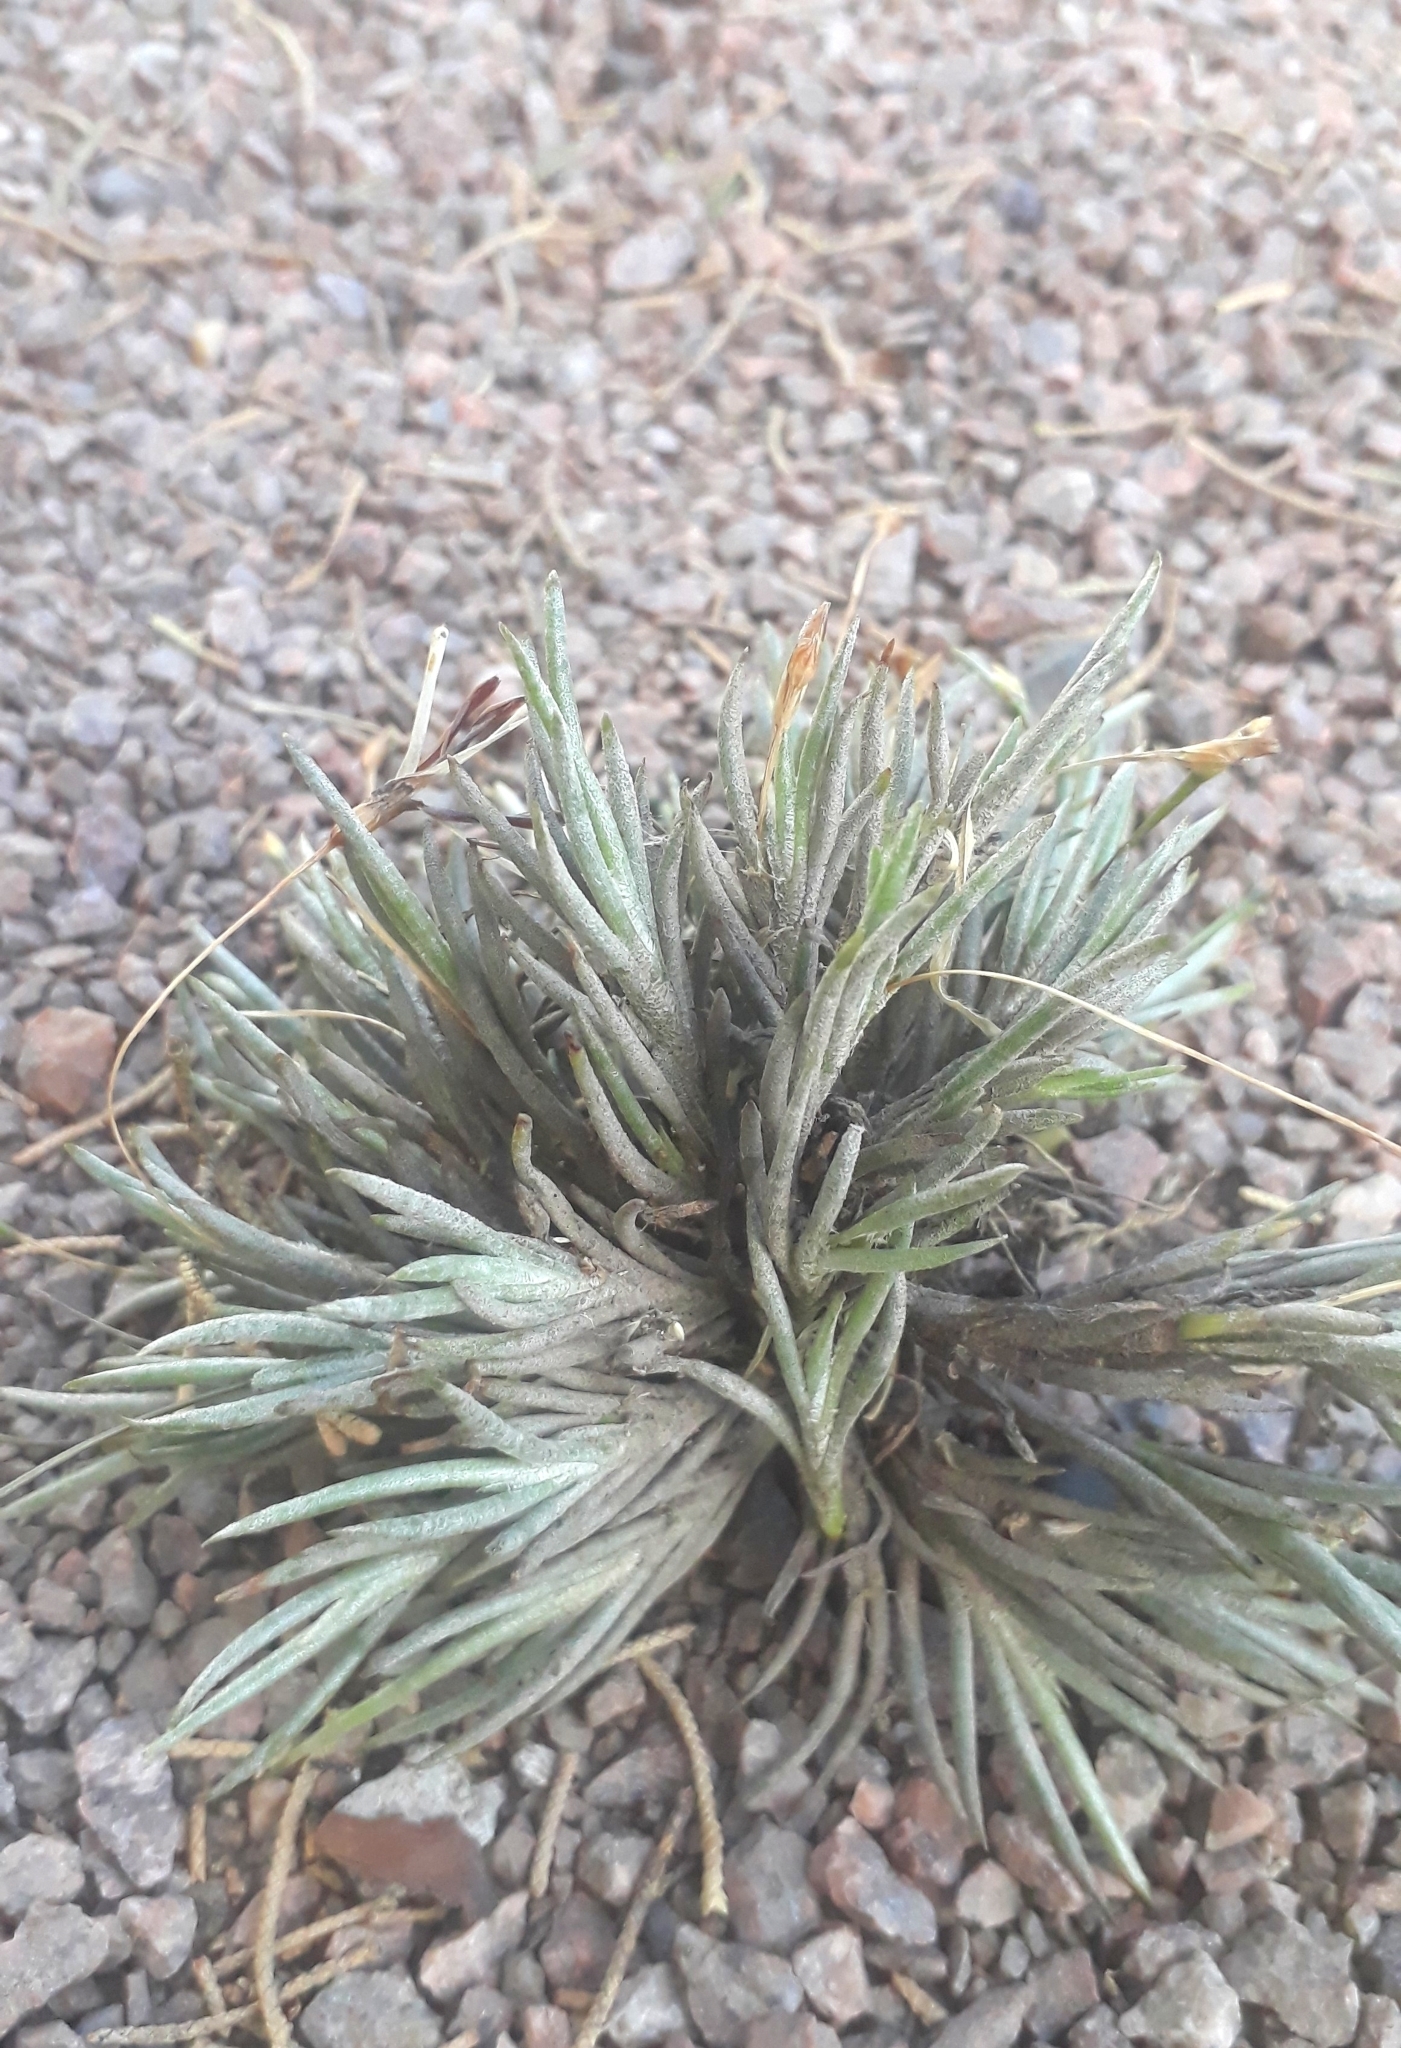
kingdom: Plantae
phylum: Tracheophyta
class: Liliopsida
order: Poales
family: Bromeliaceae
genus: Tillandsia
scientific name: Tillandsia capillaris
